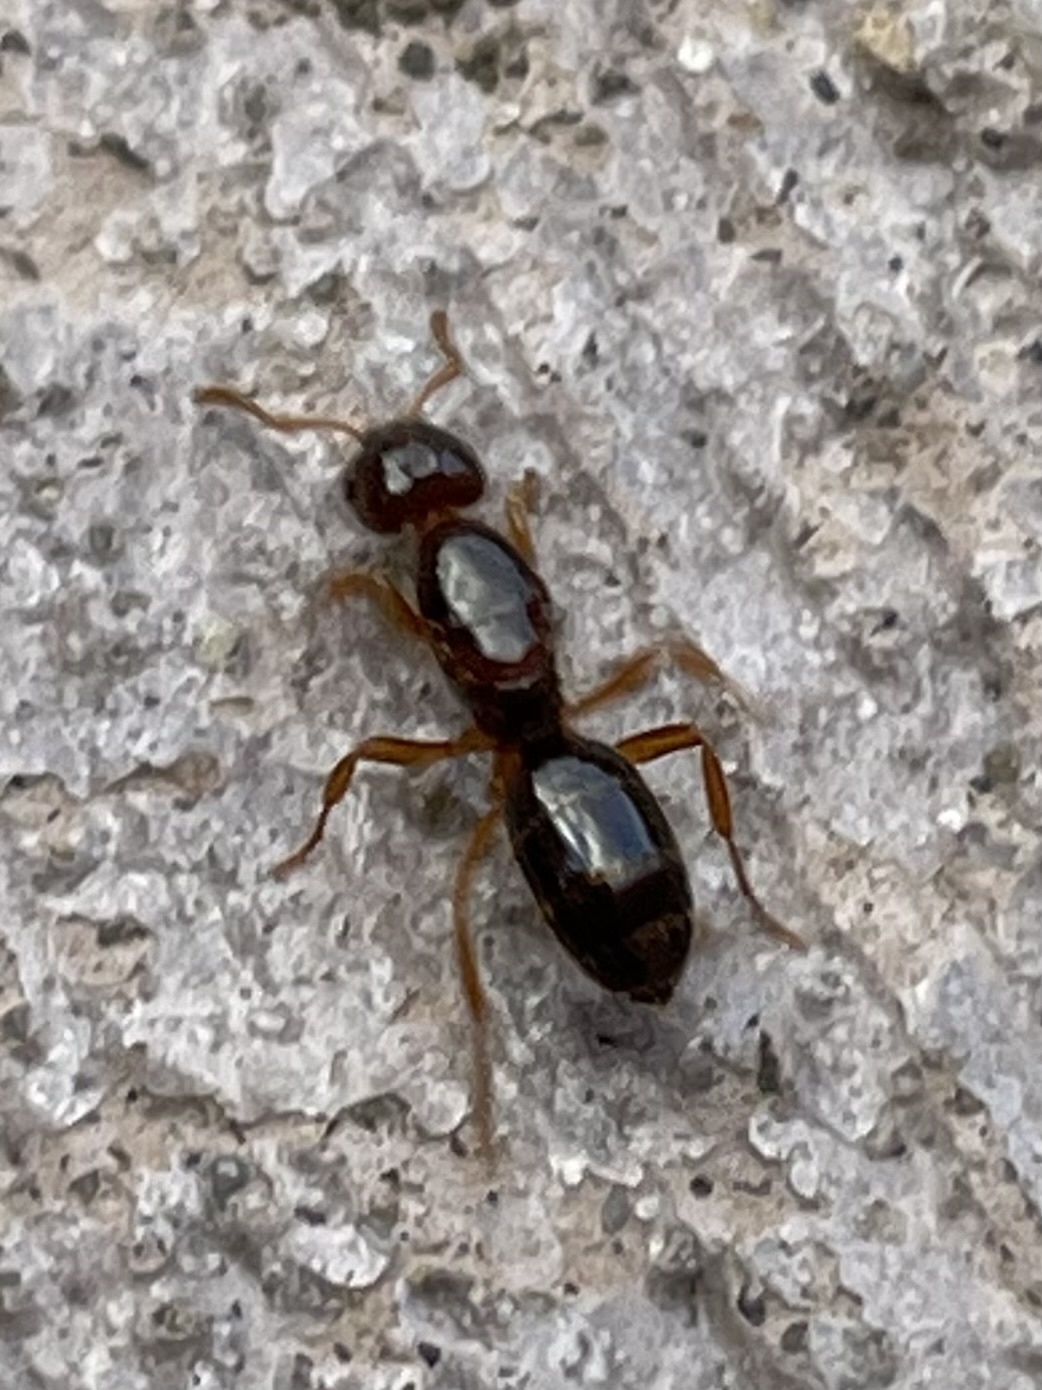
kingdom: Animalia
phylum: Arthropoda
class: Insecta
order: Hymenoptera
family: Formicidae
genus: Lasius
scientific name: Lasius claviger
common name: Common citronella ant
